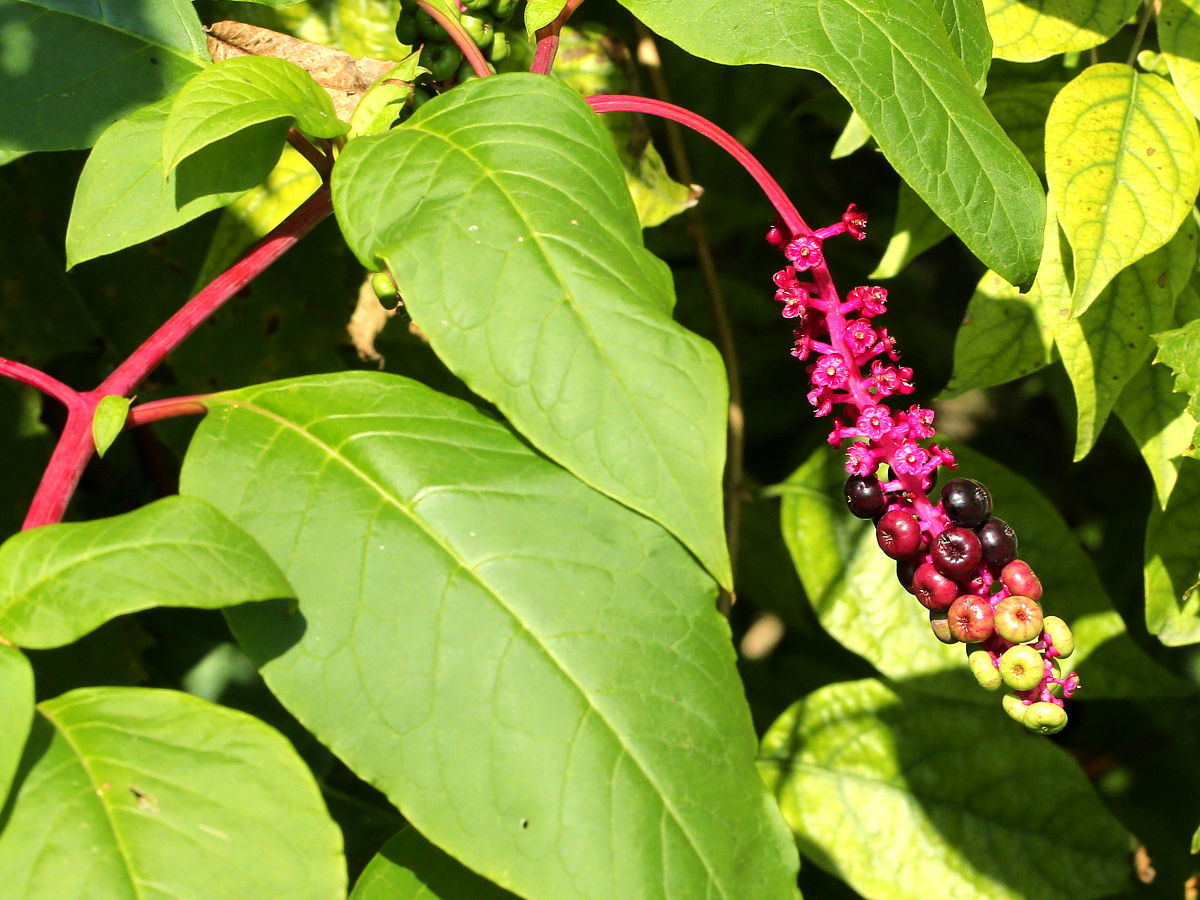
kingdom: Plantae
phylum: Tracheophyta
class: Magnoliopsida
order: Caryophyllales
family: Phytolaccaceae
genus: Phytolacca
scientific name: Phytolacca americana
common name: American pokeweed
